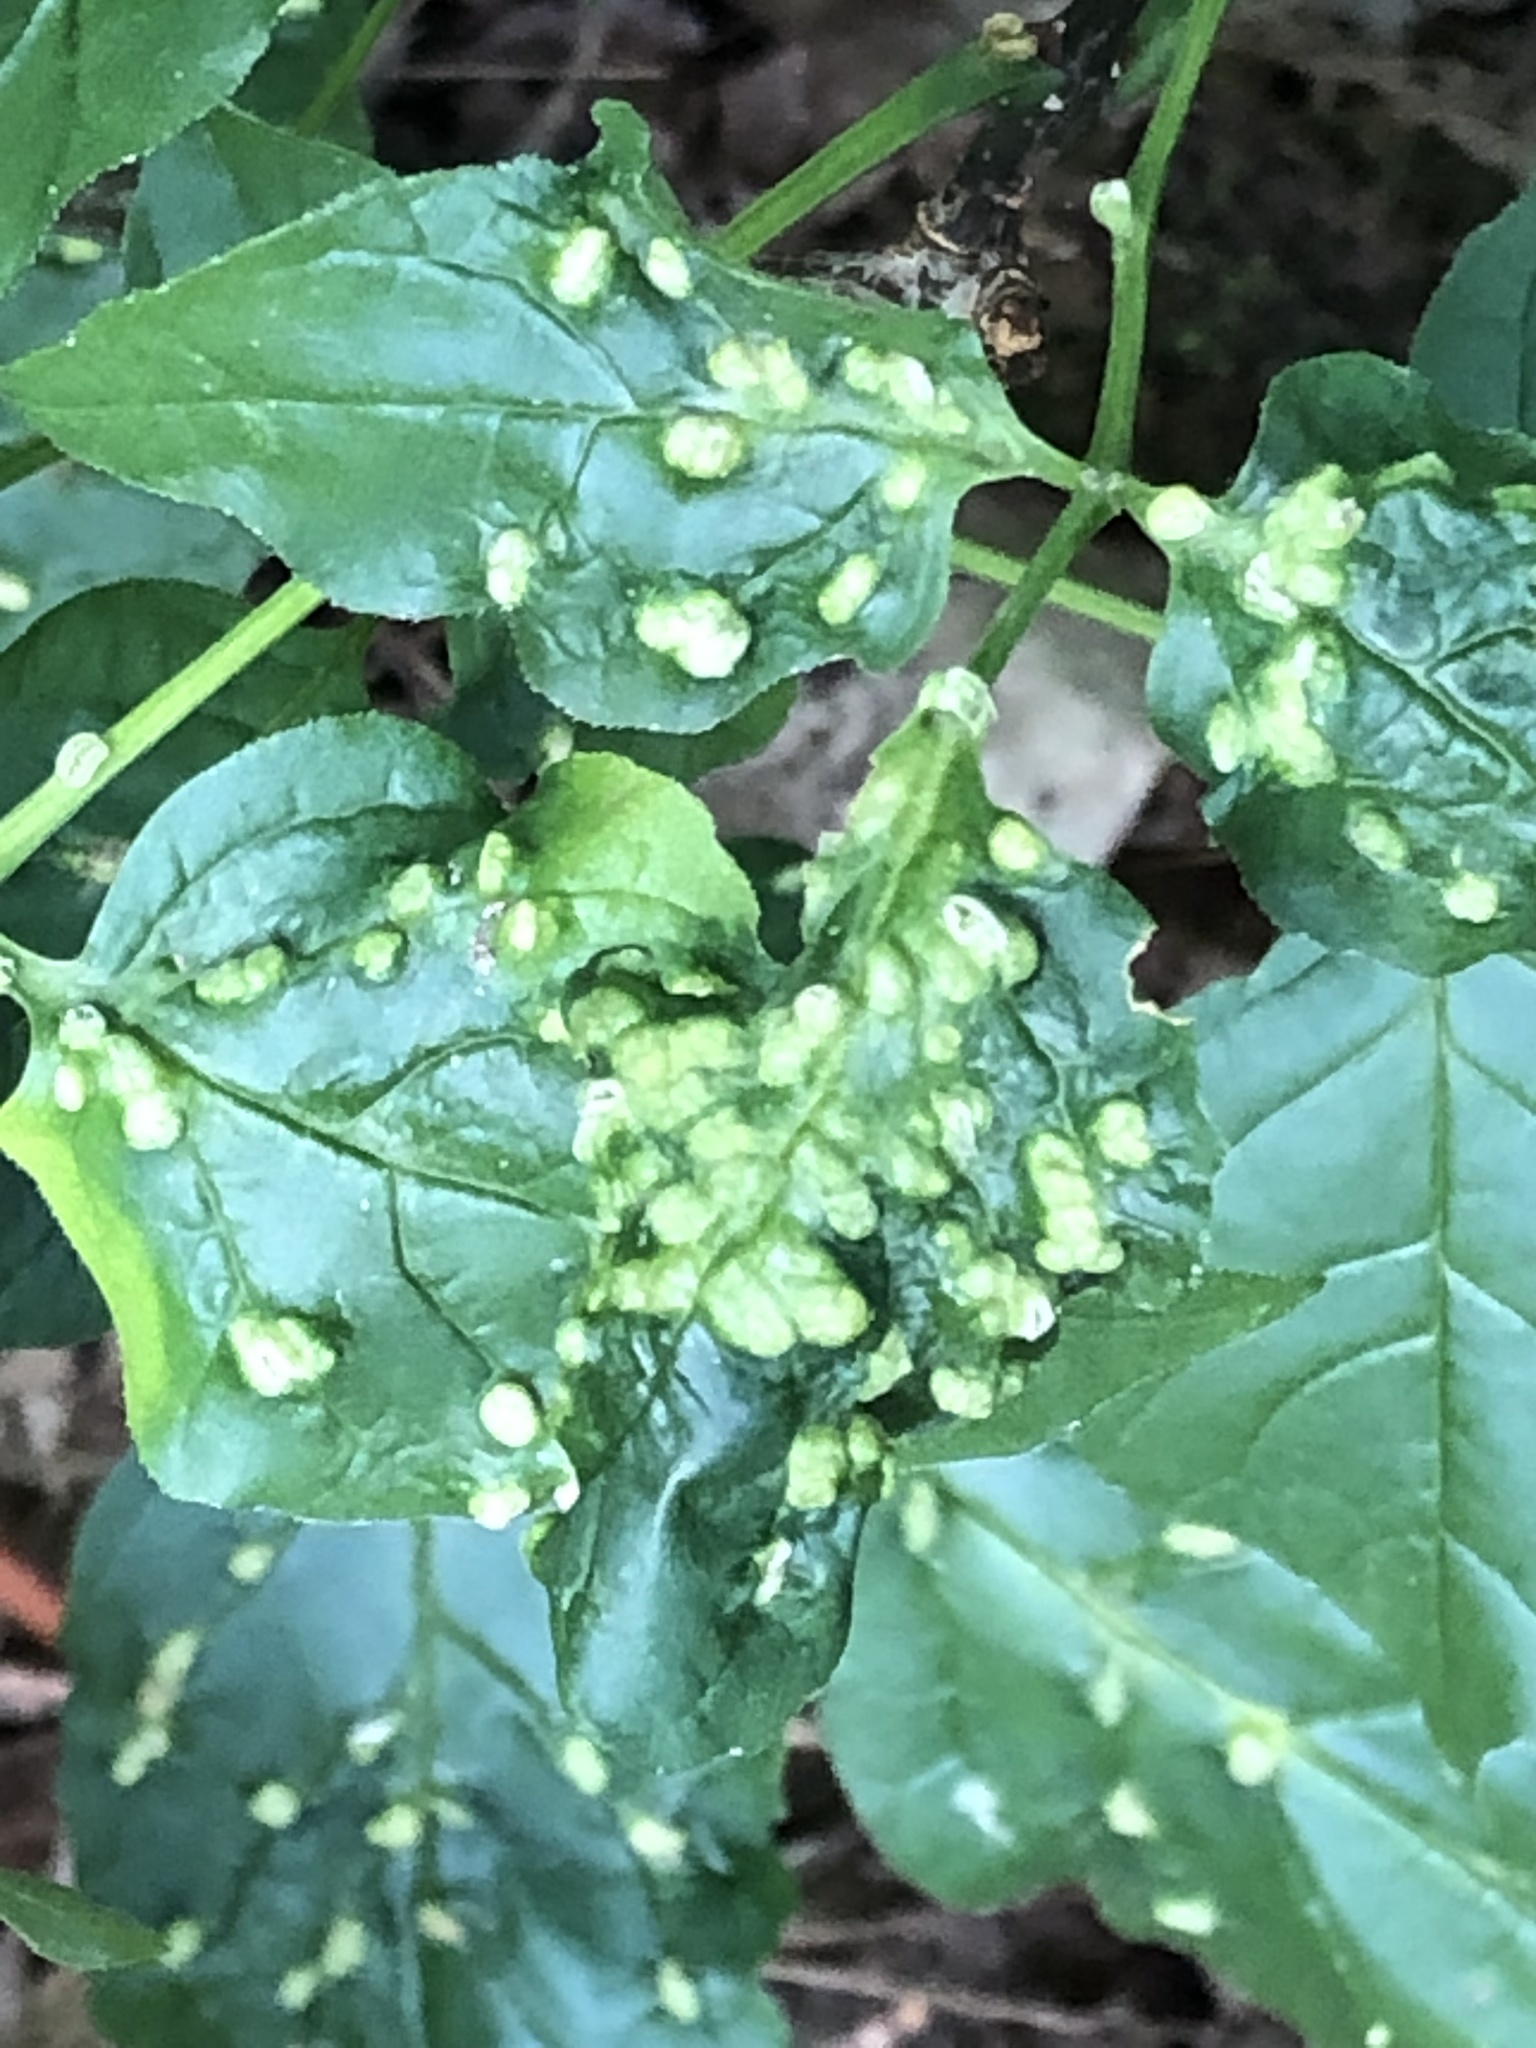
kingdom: Animalia
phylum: Arthropoda
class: Arachnida
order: Trombidiformes
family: Eriophyidae
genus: Aceria
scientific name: Aceria fraxinicola
